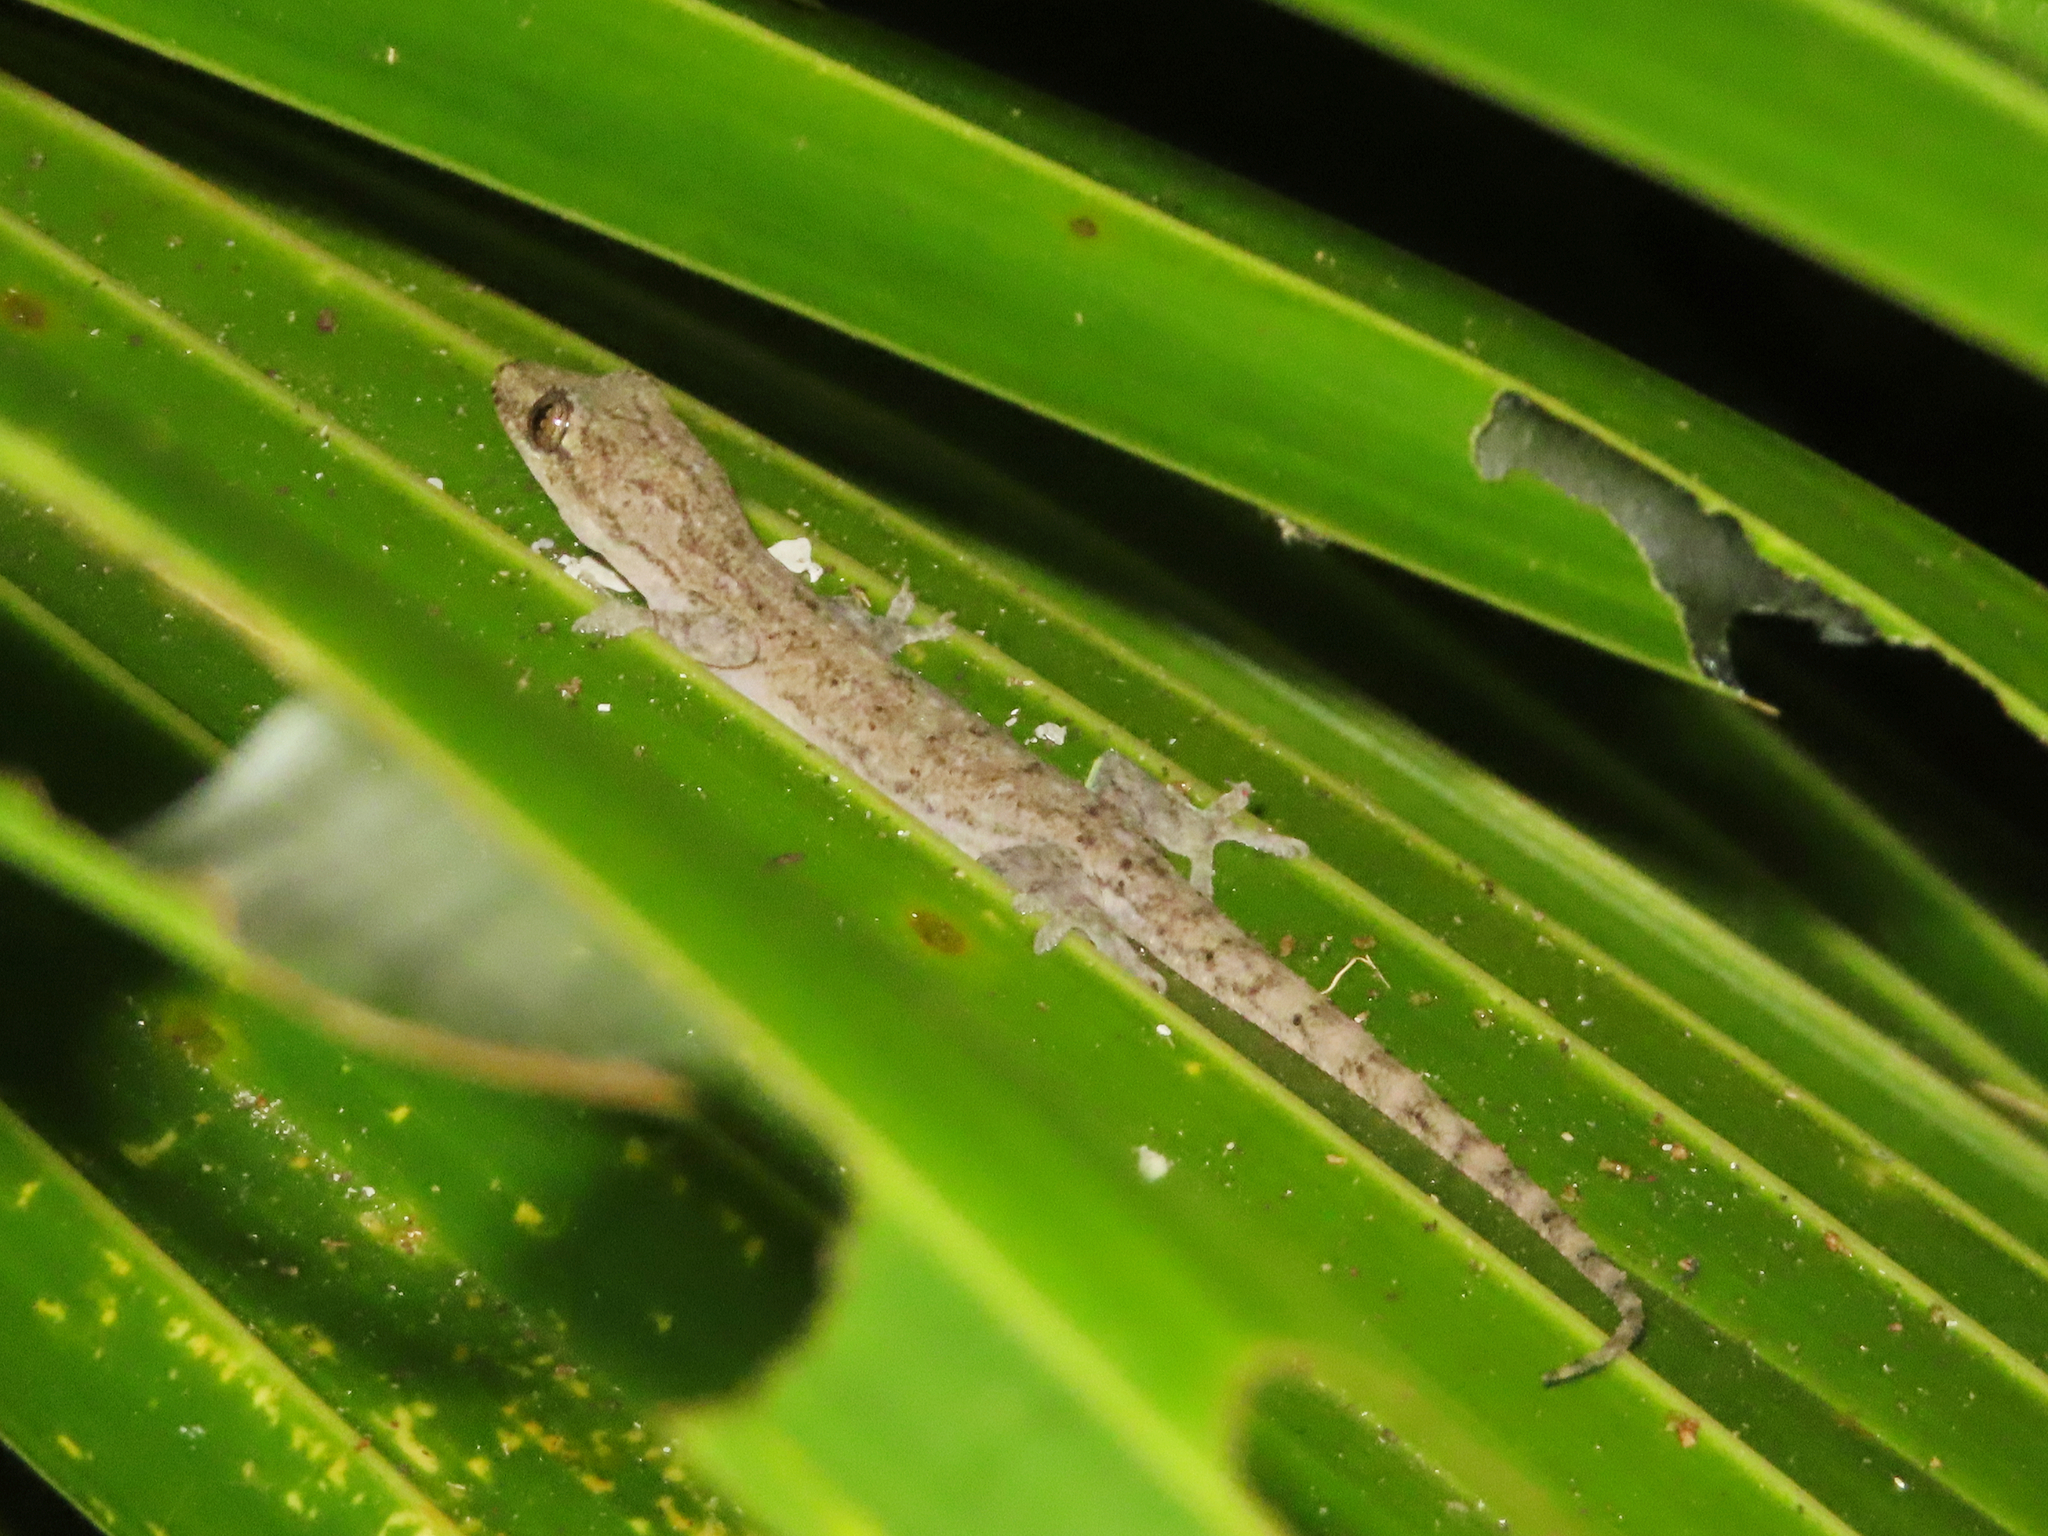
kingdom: Animalia
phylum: Chordata
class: Squamata
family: Gekkonidae
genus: Hemidactylus
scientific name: Hemidactylus frenatus
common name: Common house gecko
